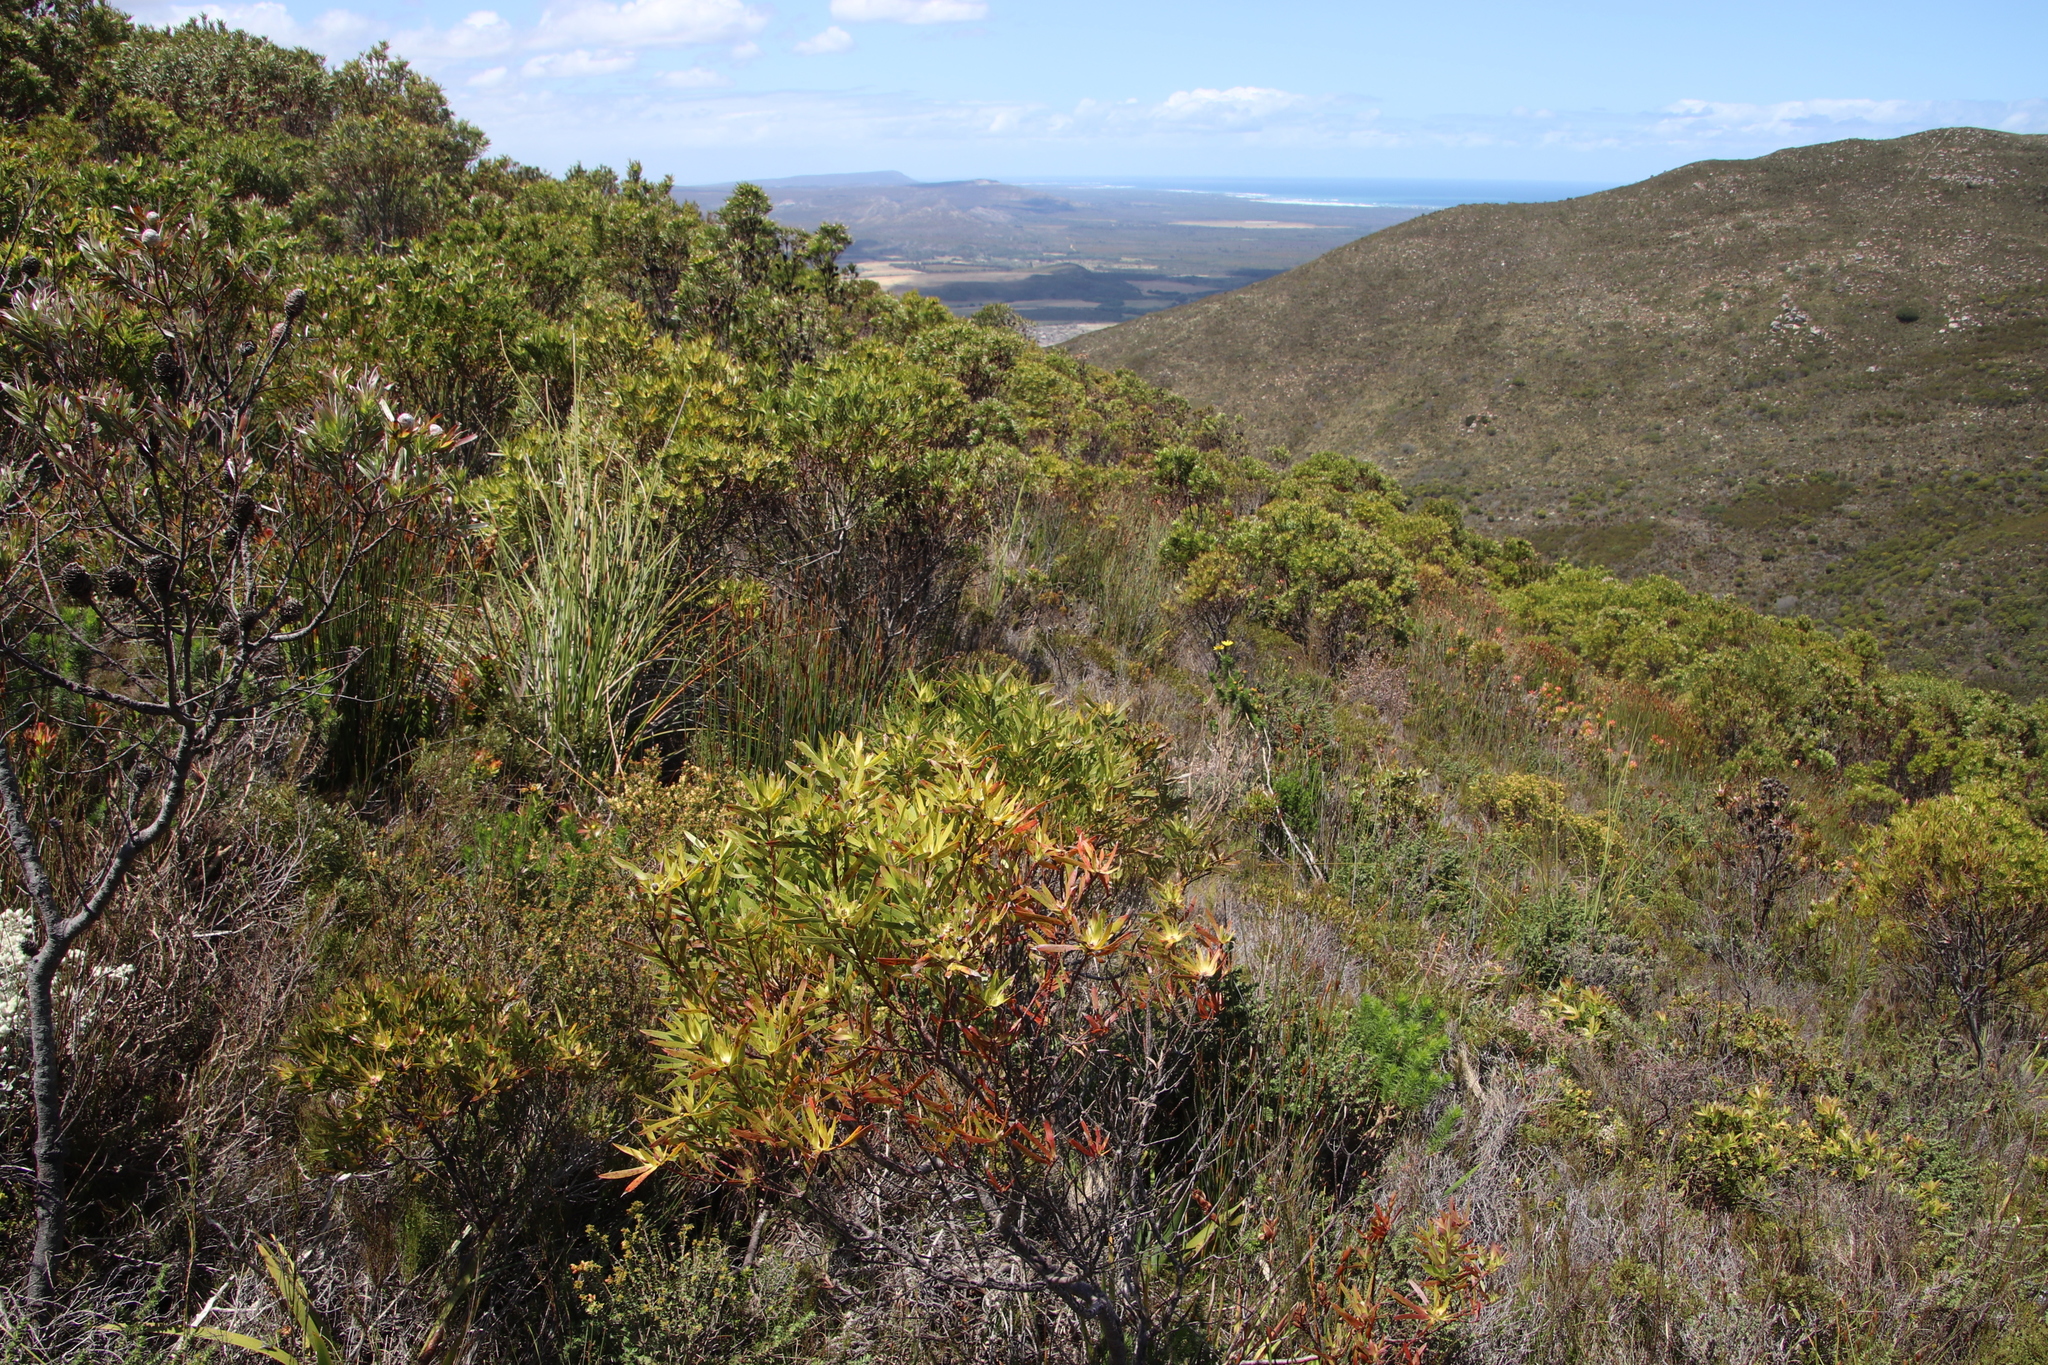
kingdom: Plantae
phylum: Tracheophyta
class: Magnoliopsida
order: Proteales
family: Proteaceae
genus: Leucadendron
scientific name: Leucadendron xanthoconus
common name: Sickle-leaf conebush
